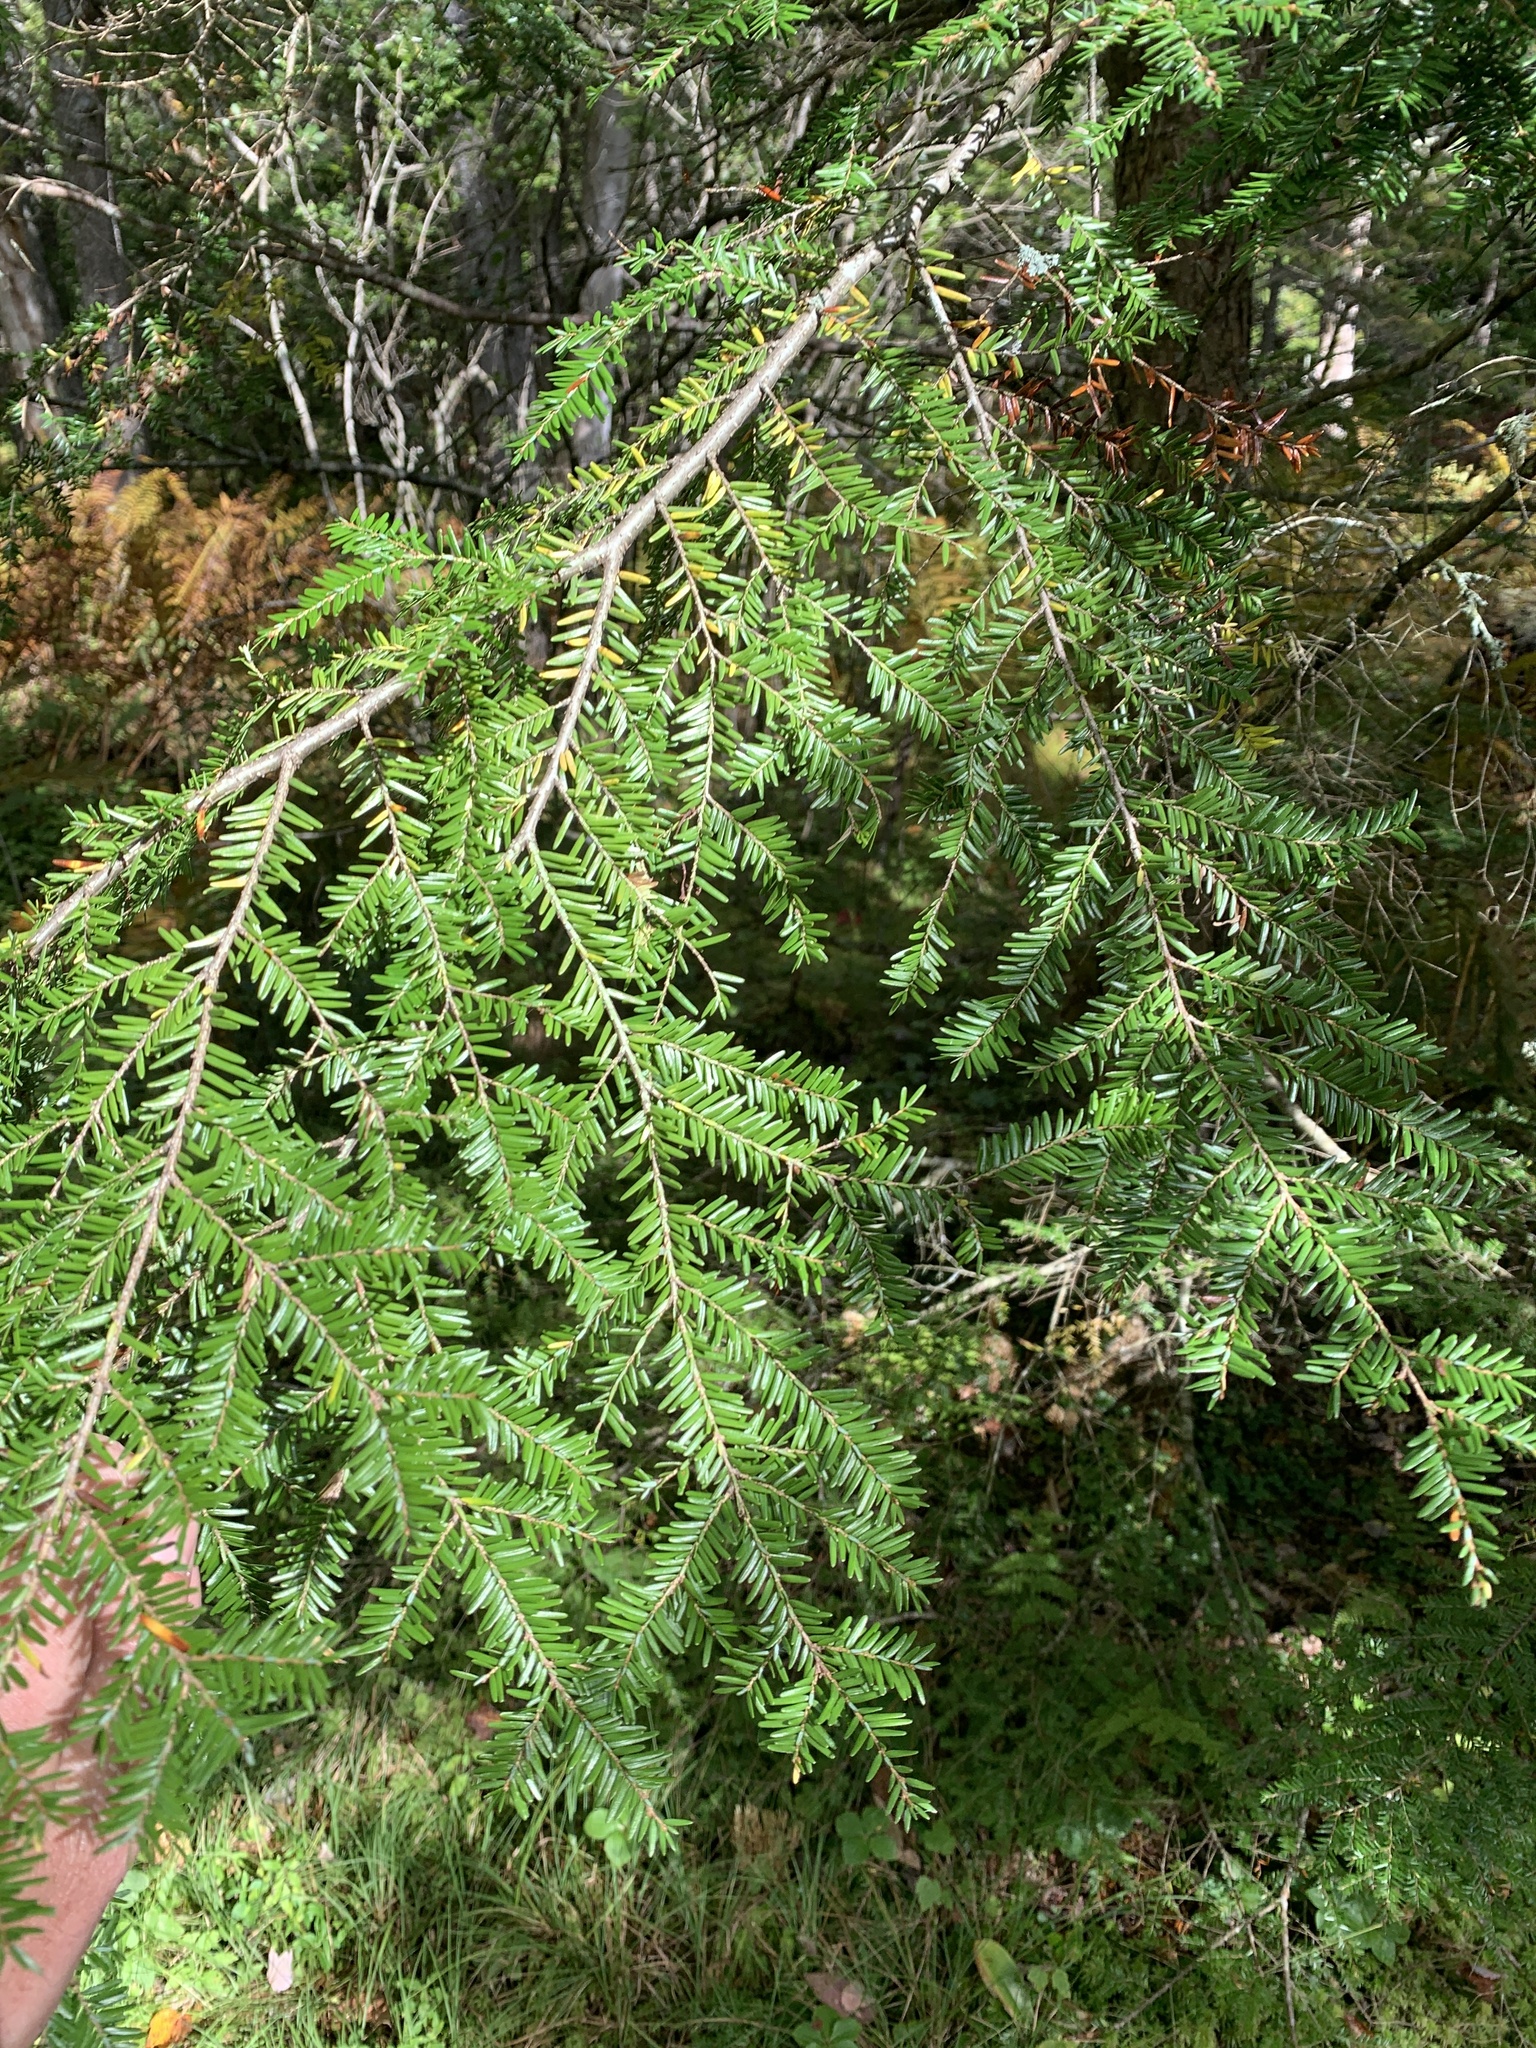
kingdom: Plantae
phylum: Tracheophyta
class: Pinopsida
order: Pinales
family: Pinaceae
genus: Tsuga
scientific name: Tsuga canadensis
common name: Eastern hemlock
